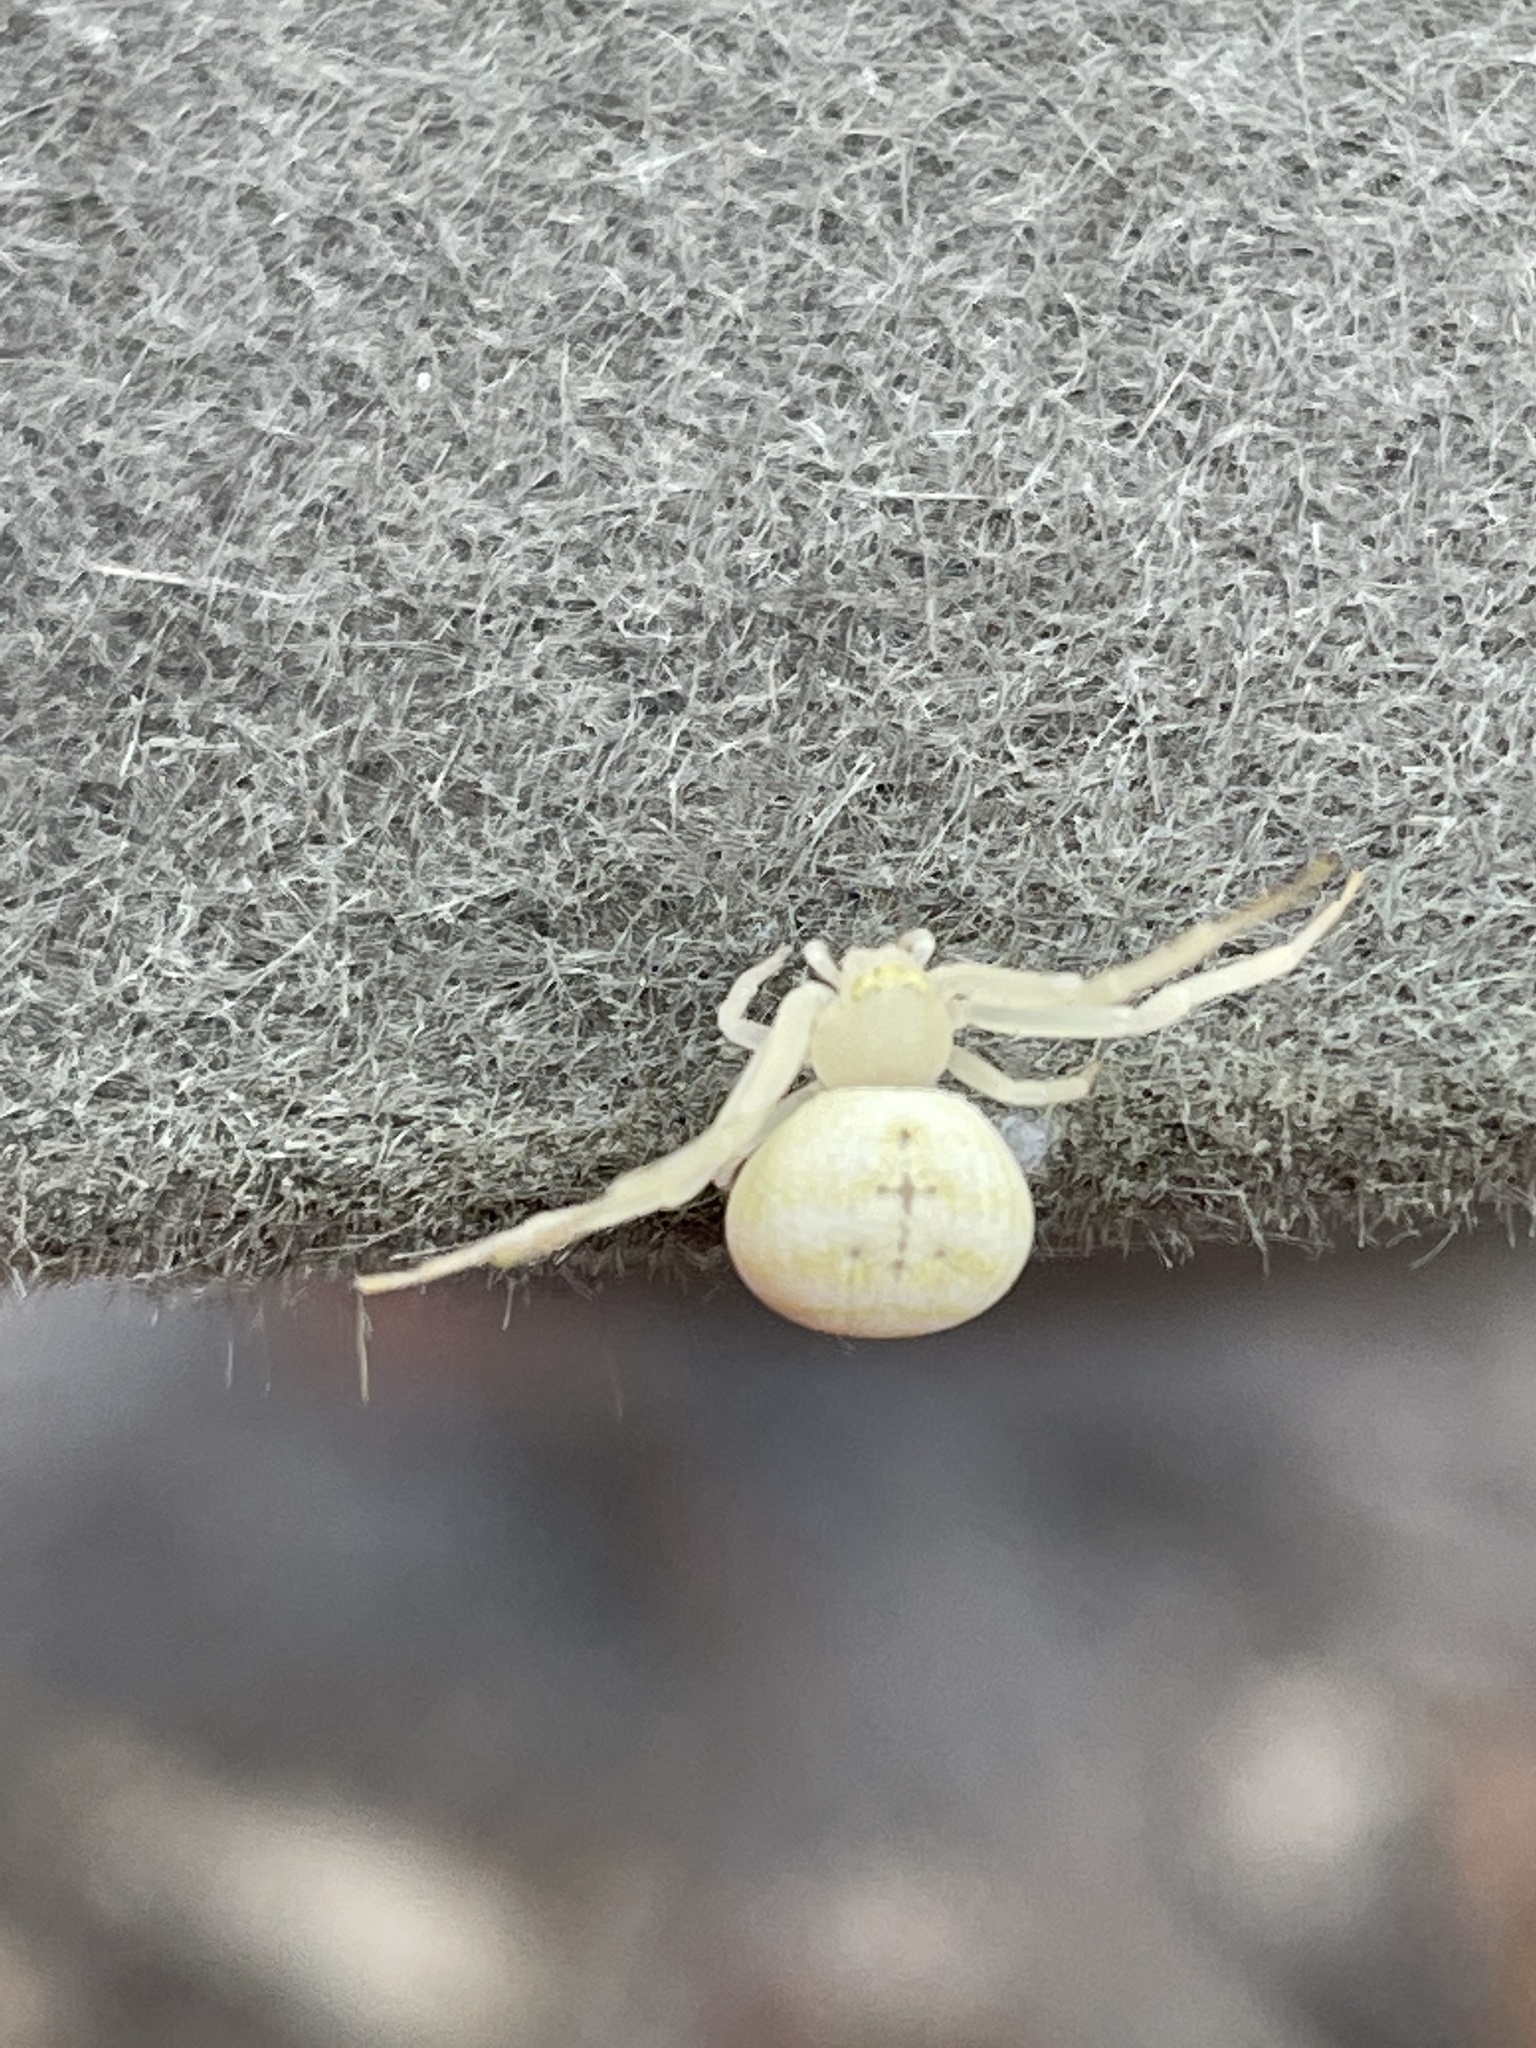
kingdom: Animalia
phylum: Arthropoda
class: Arachnida
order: Araneae
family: Thomisidae
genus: Zygometis
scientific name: Zygometis xanthogaster
